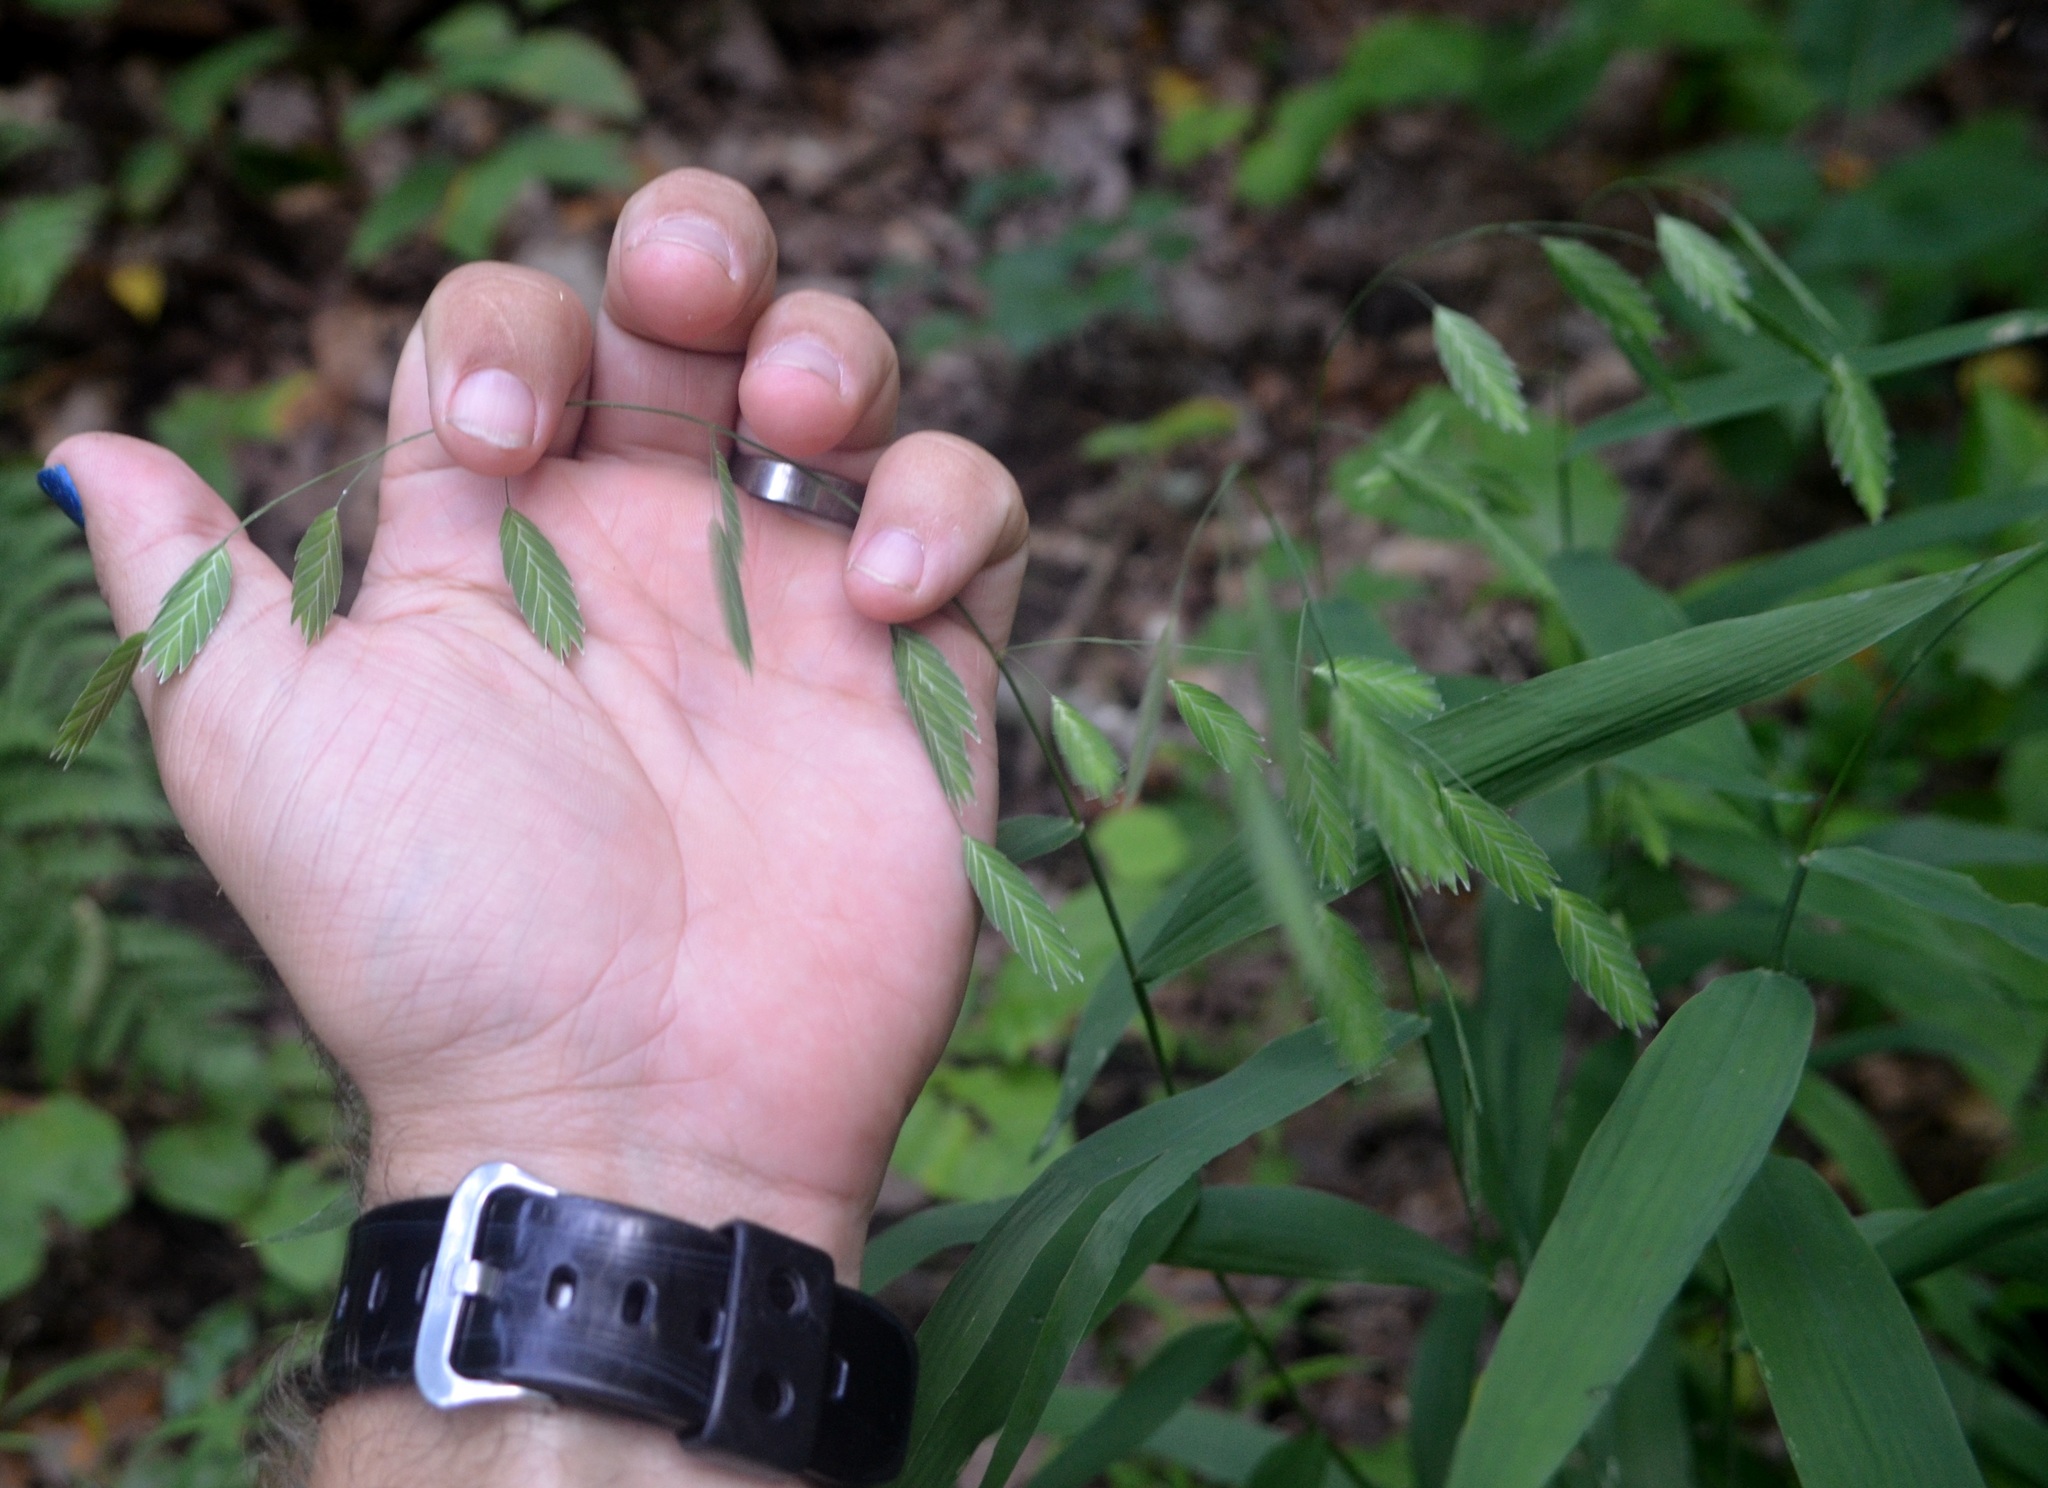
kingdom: Plantae
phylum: Tracheophyta
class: Liliopsida
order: Poales
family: Poaceae
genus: Chasmanthium
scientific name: Chasmanthium latifolium
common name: Broad-leaved chasmanthium
